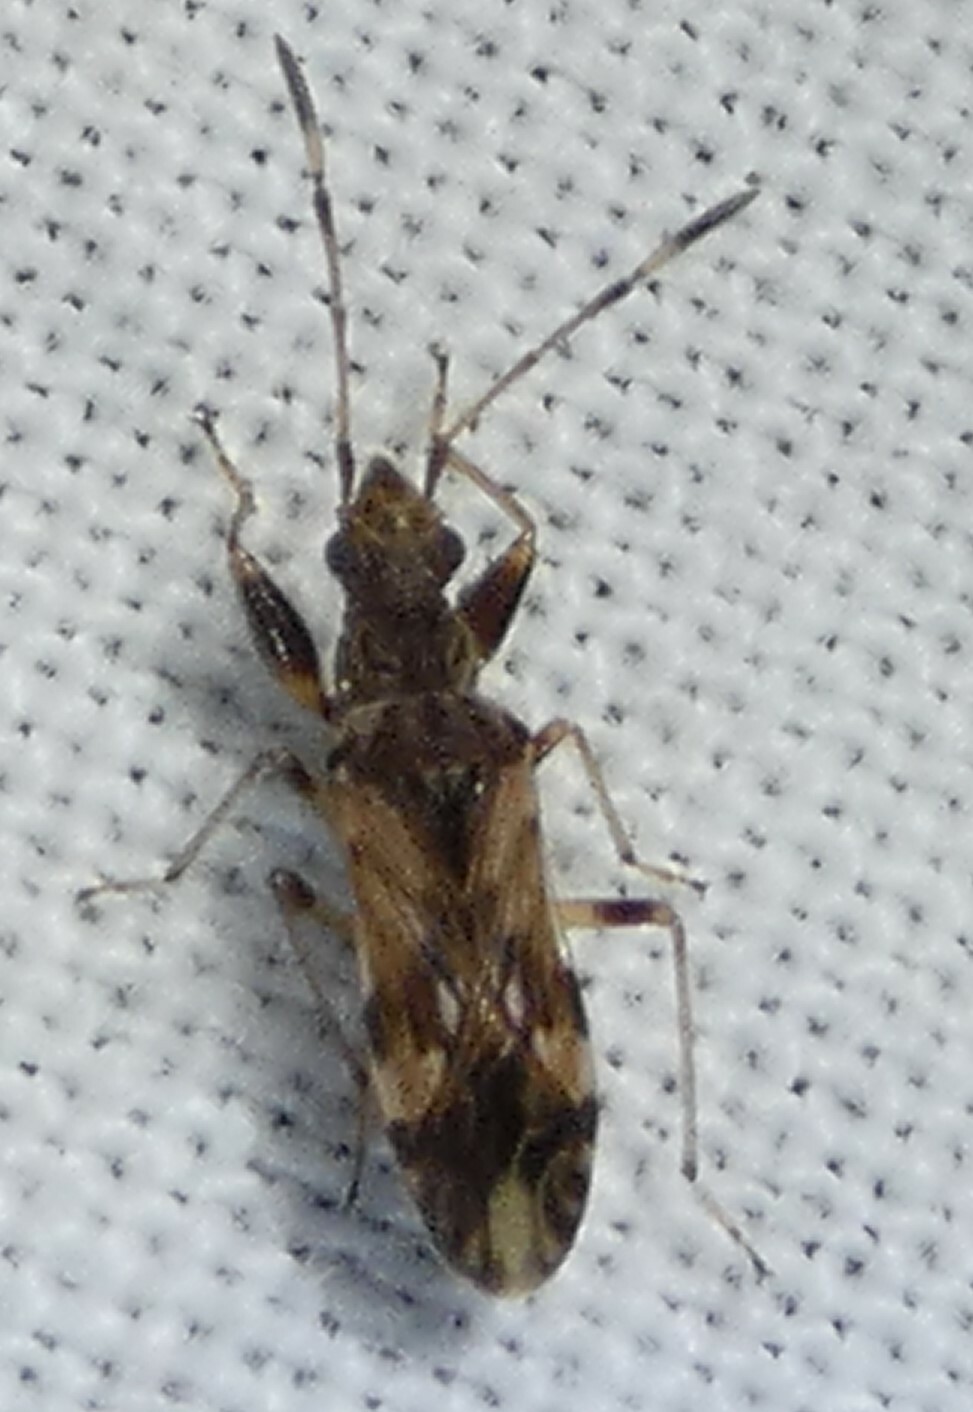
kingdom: Animalia
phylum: Arthropoda
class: Insecta
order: Hemiptera
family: Rhyparochromidae
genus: Neopamera
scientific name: Neopamera albocincta
